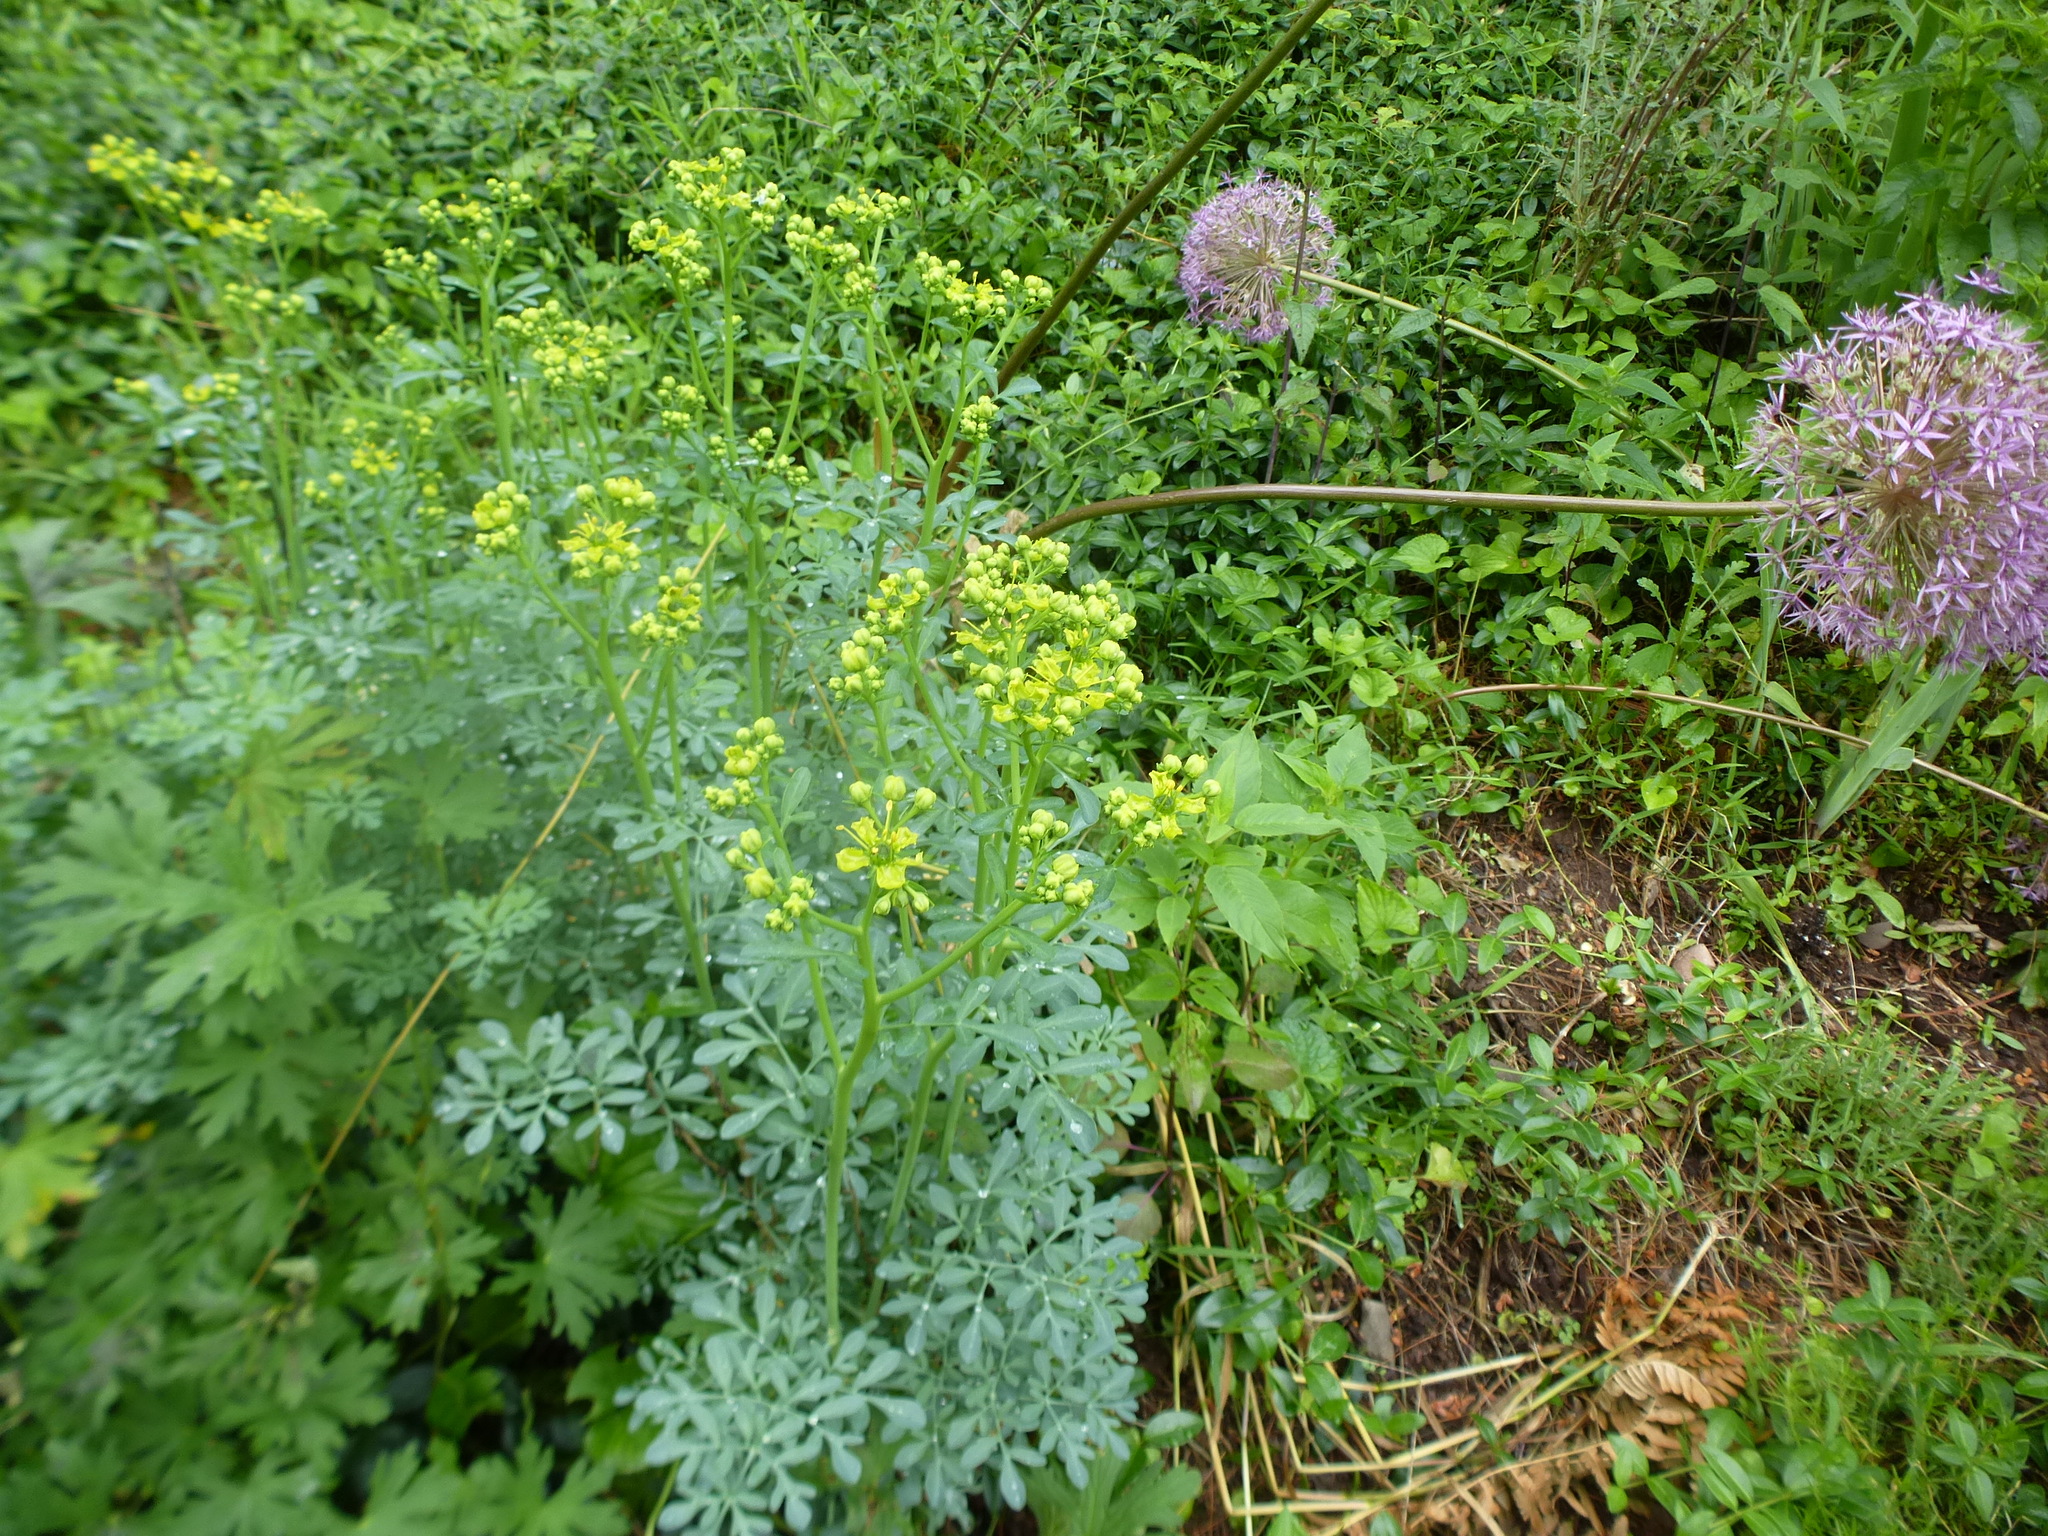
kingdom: Plantae
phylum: Tracheophyta
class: Magnoliopsida
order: Sapindales
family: Rutaceae
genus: Ruta
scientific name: Ruta graveolens
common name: Common rue
